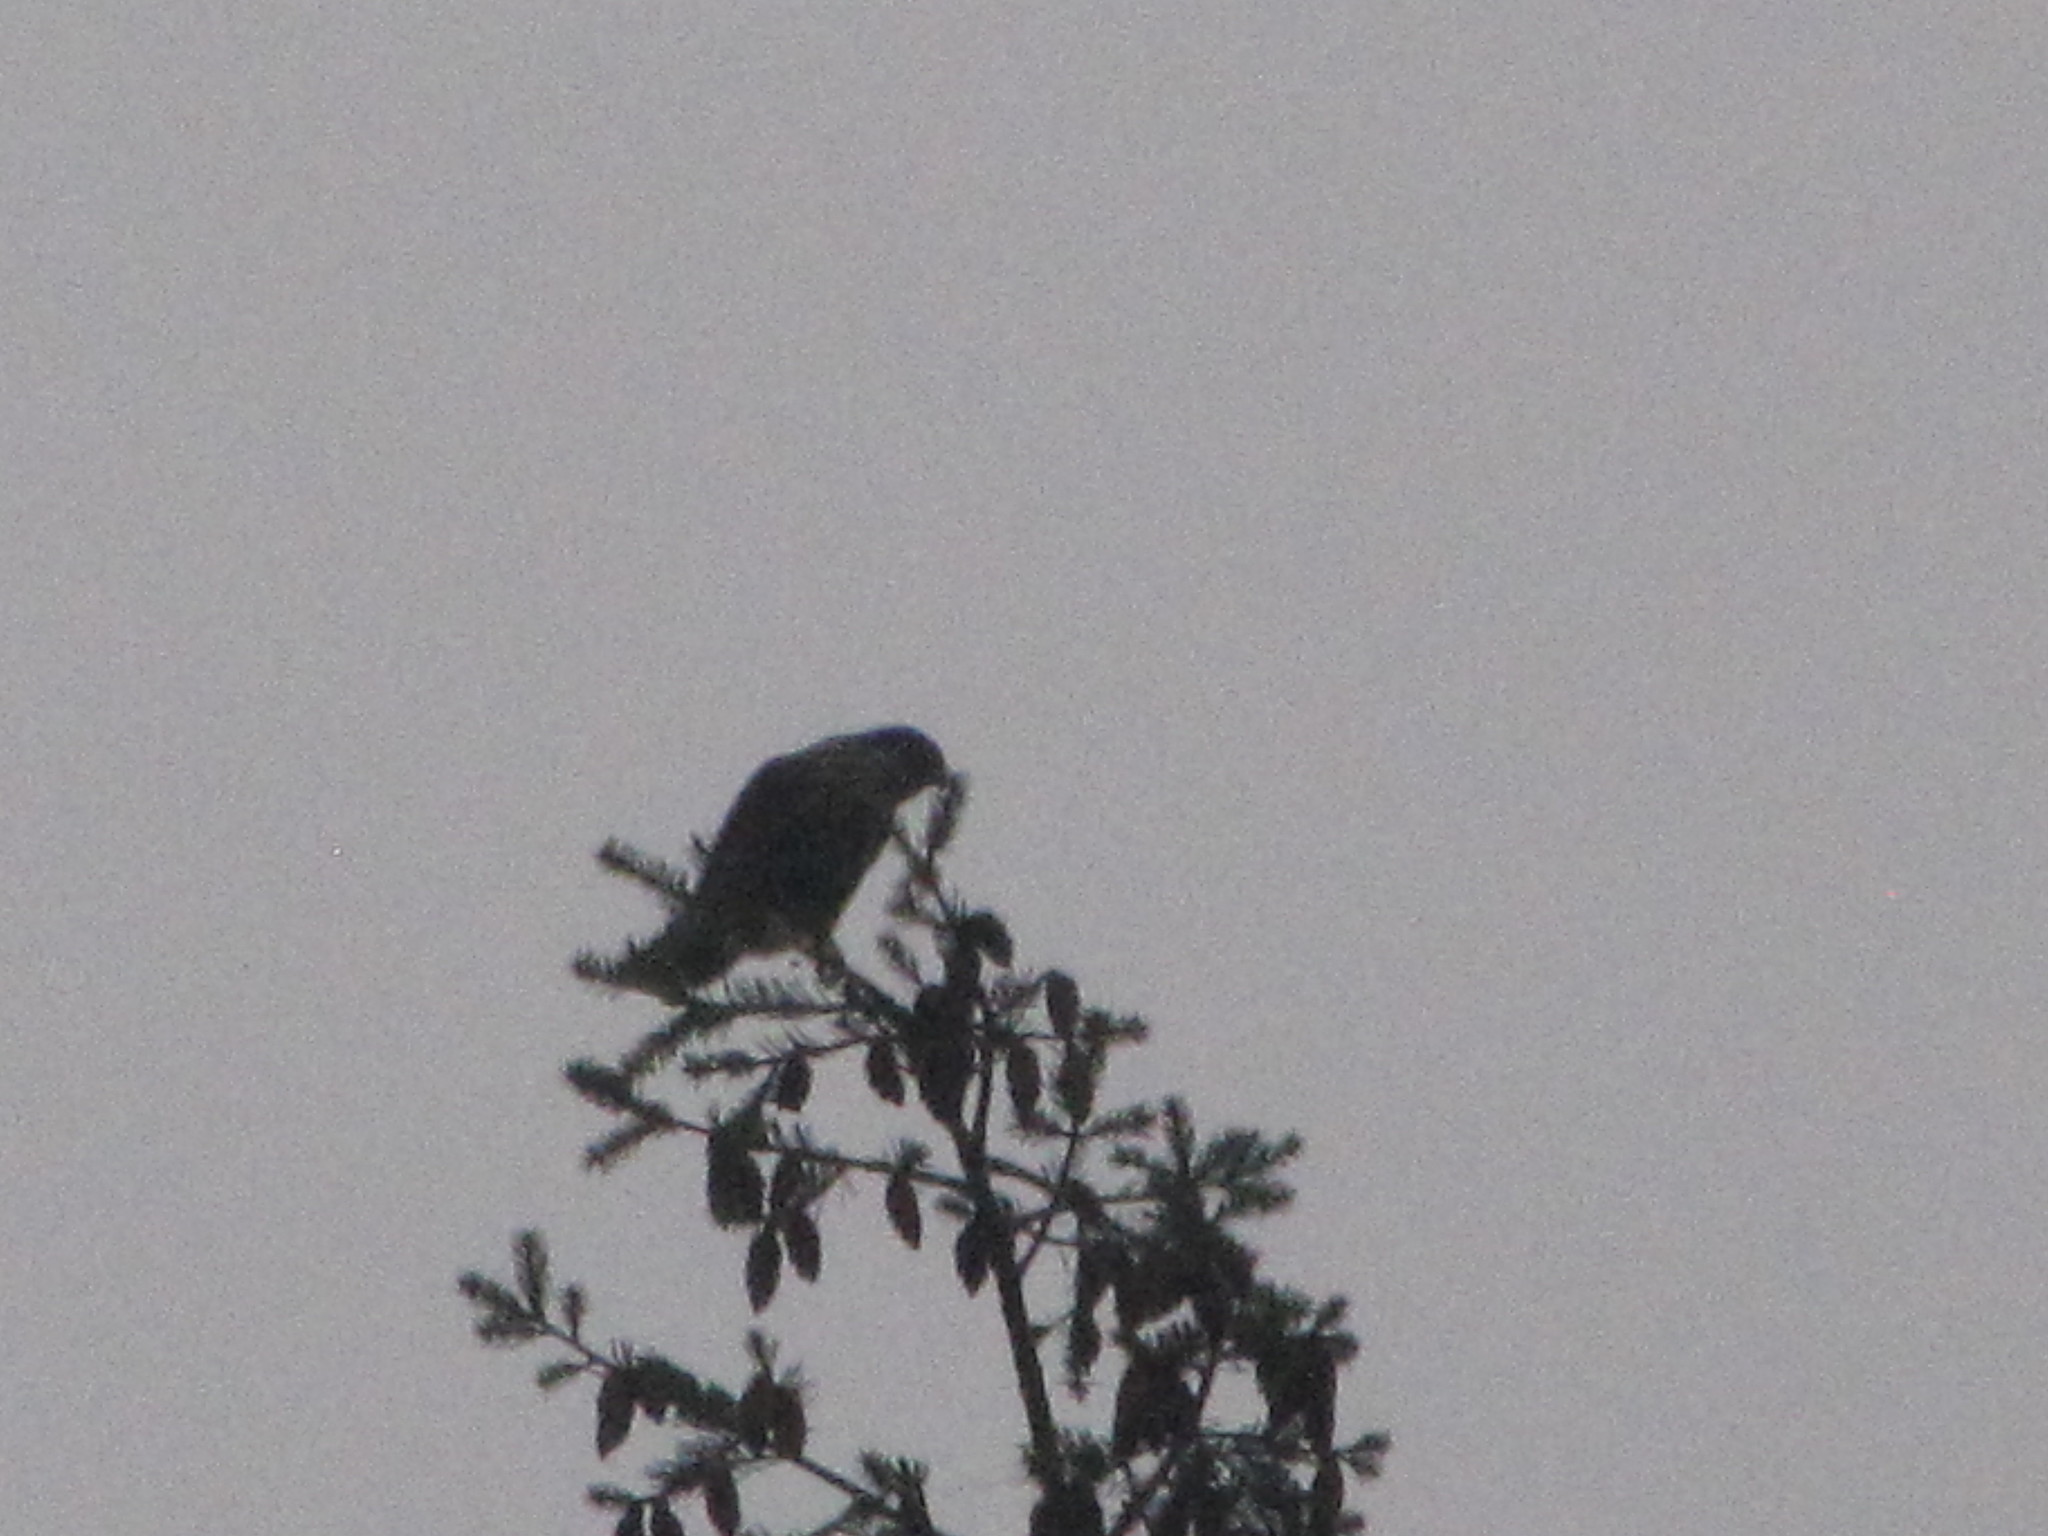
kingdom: Animalia
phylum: Chordata
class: Aves
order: Falconiformes
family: Falconidae
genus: Falco
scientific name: Falco columbarius
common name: Merlin
